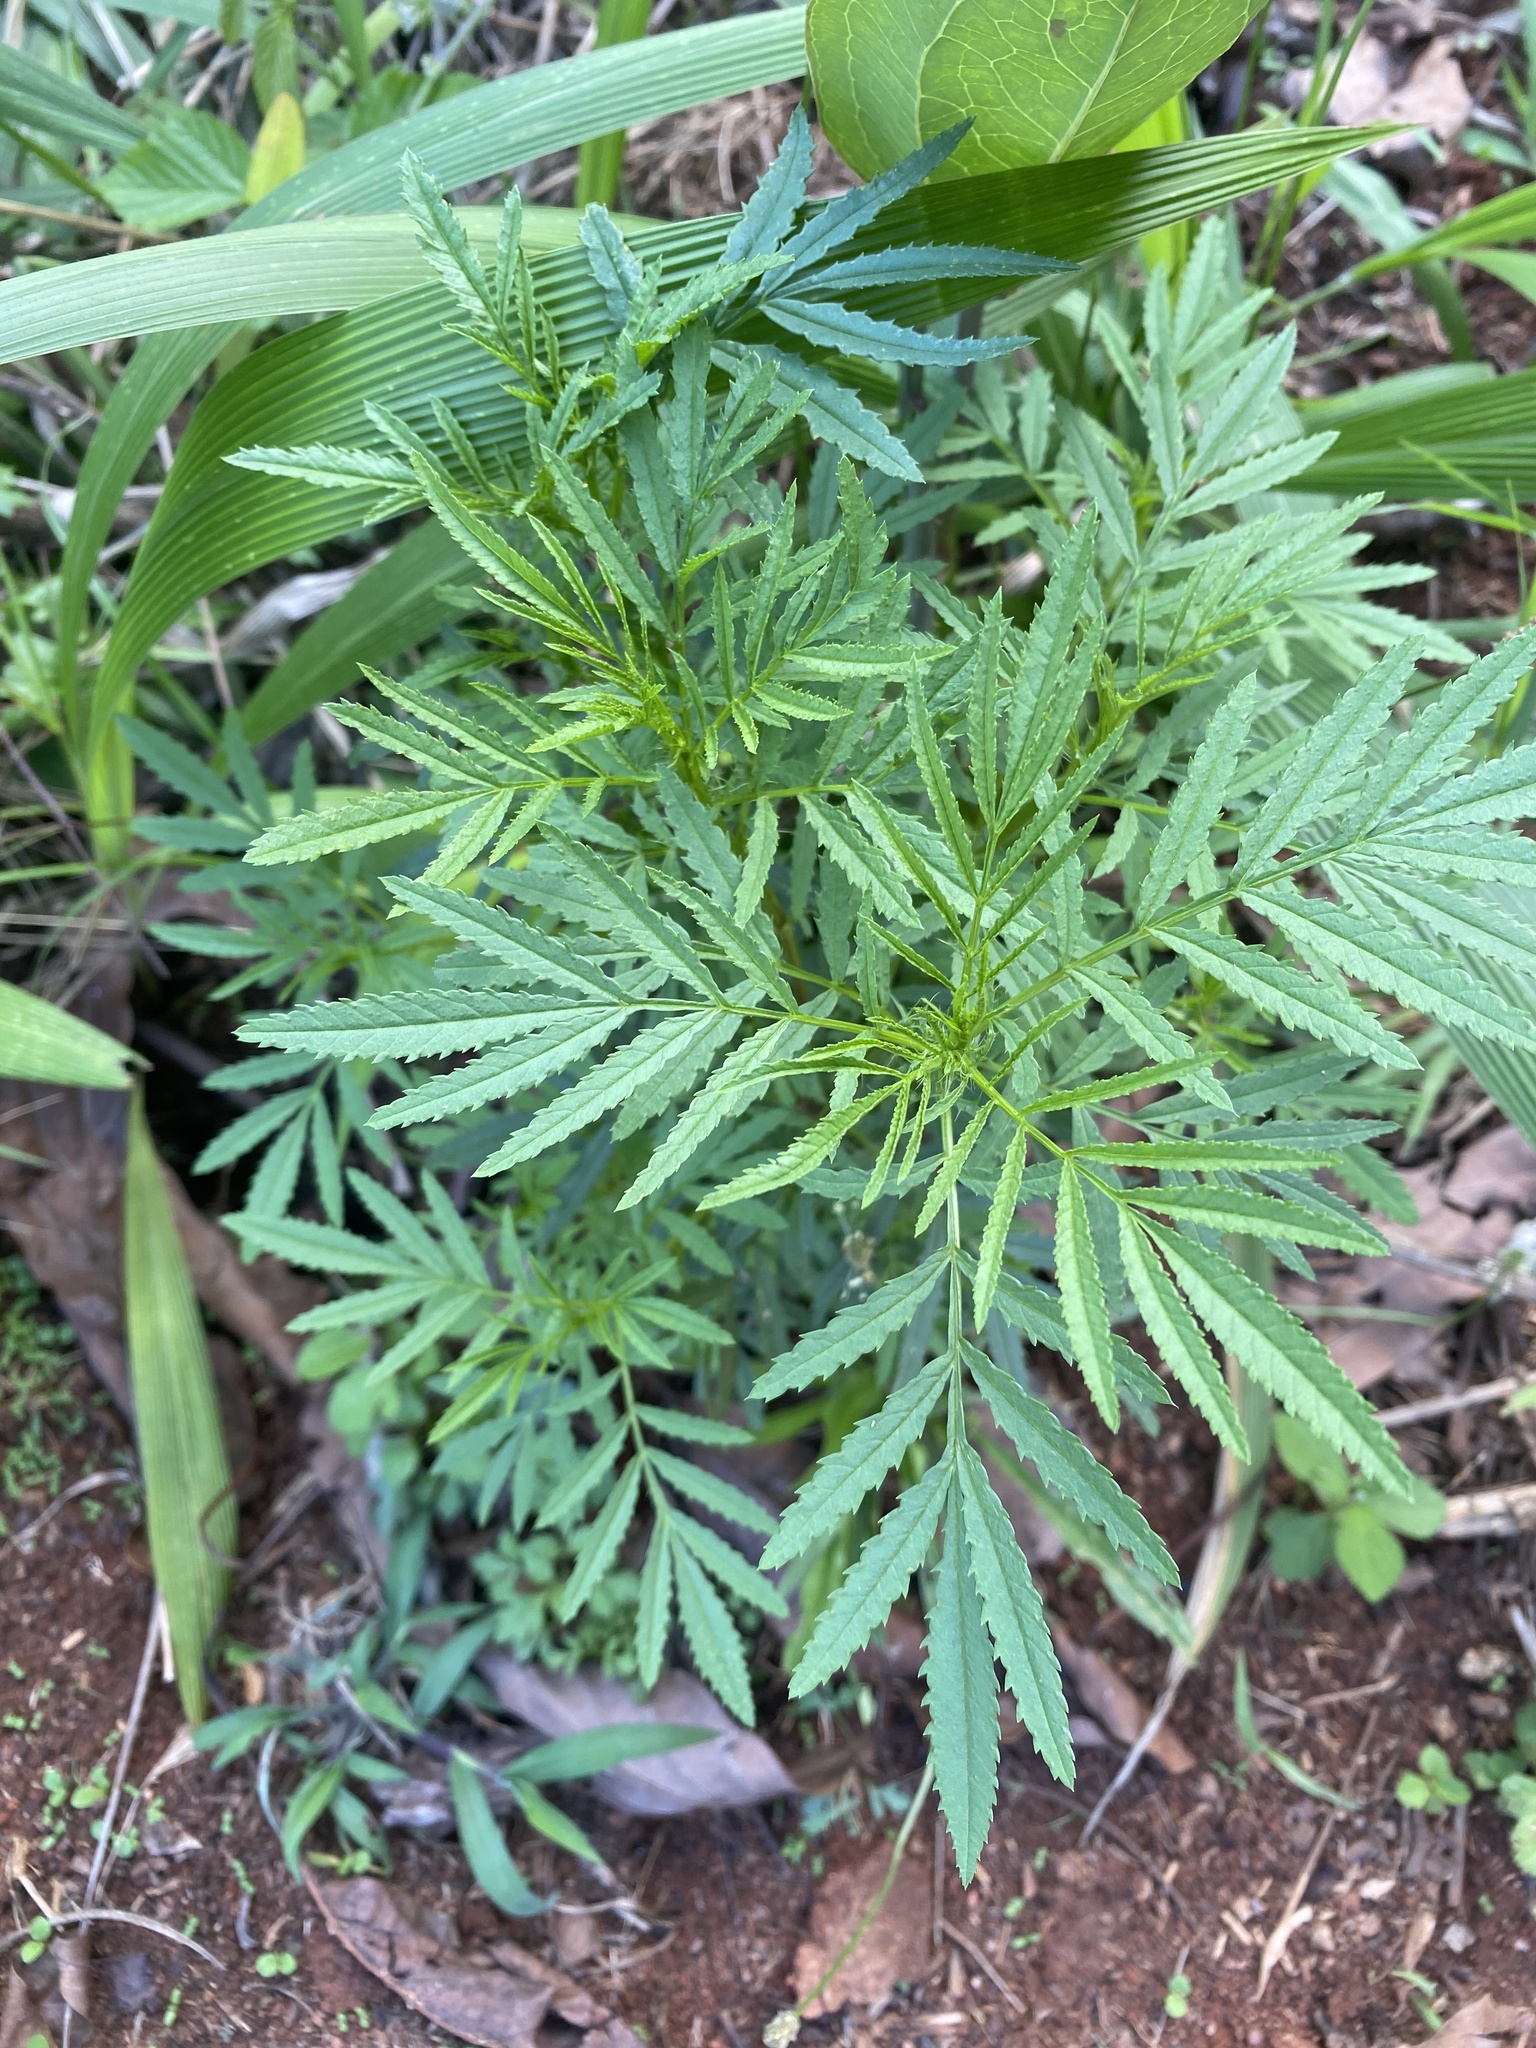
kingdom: Plantae
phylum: Tracheophyta
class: Magnoliopsida
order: Asterales
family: Asteraceae
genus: Tagetes
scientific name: Tagetes minuta
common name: Muster john henry
